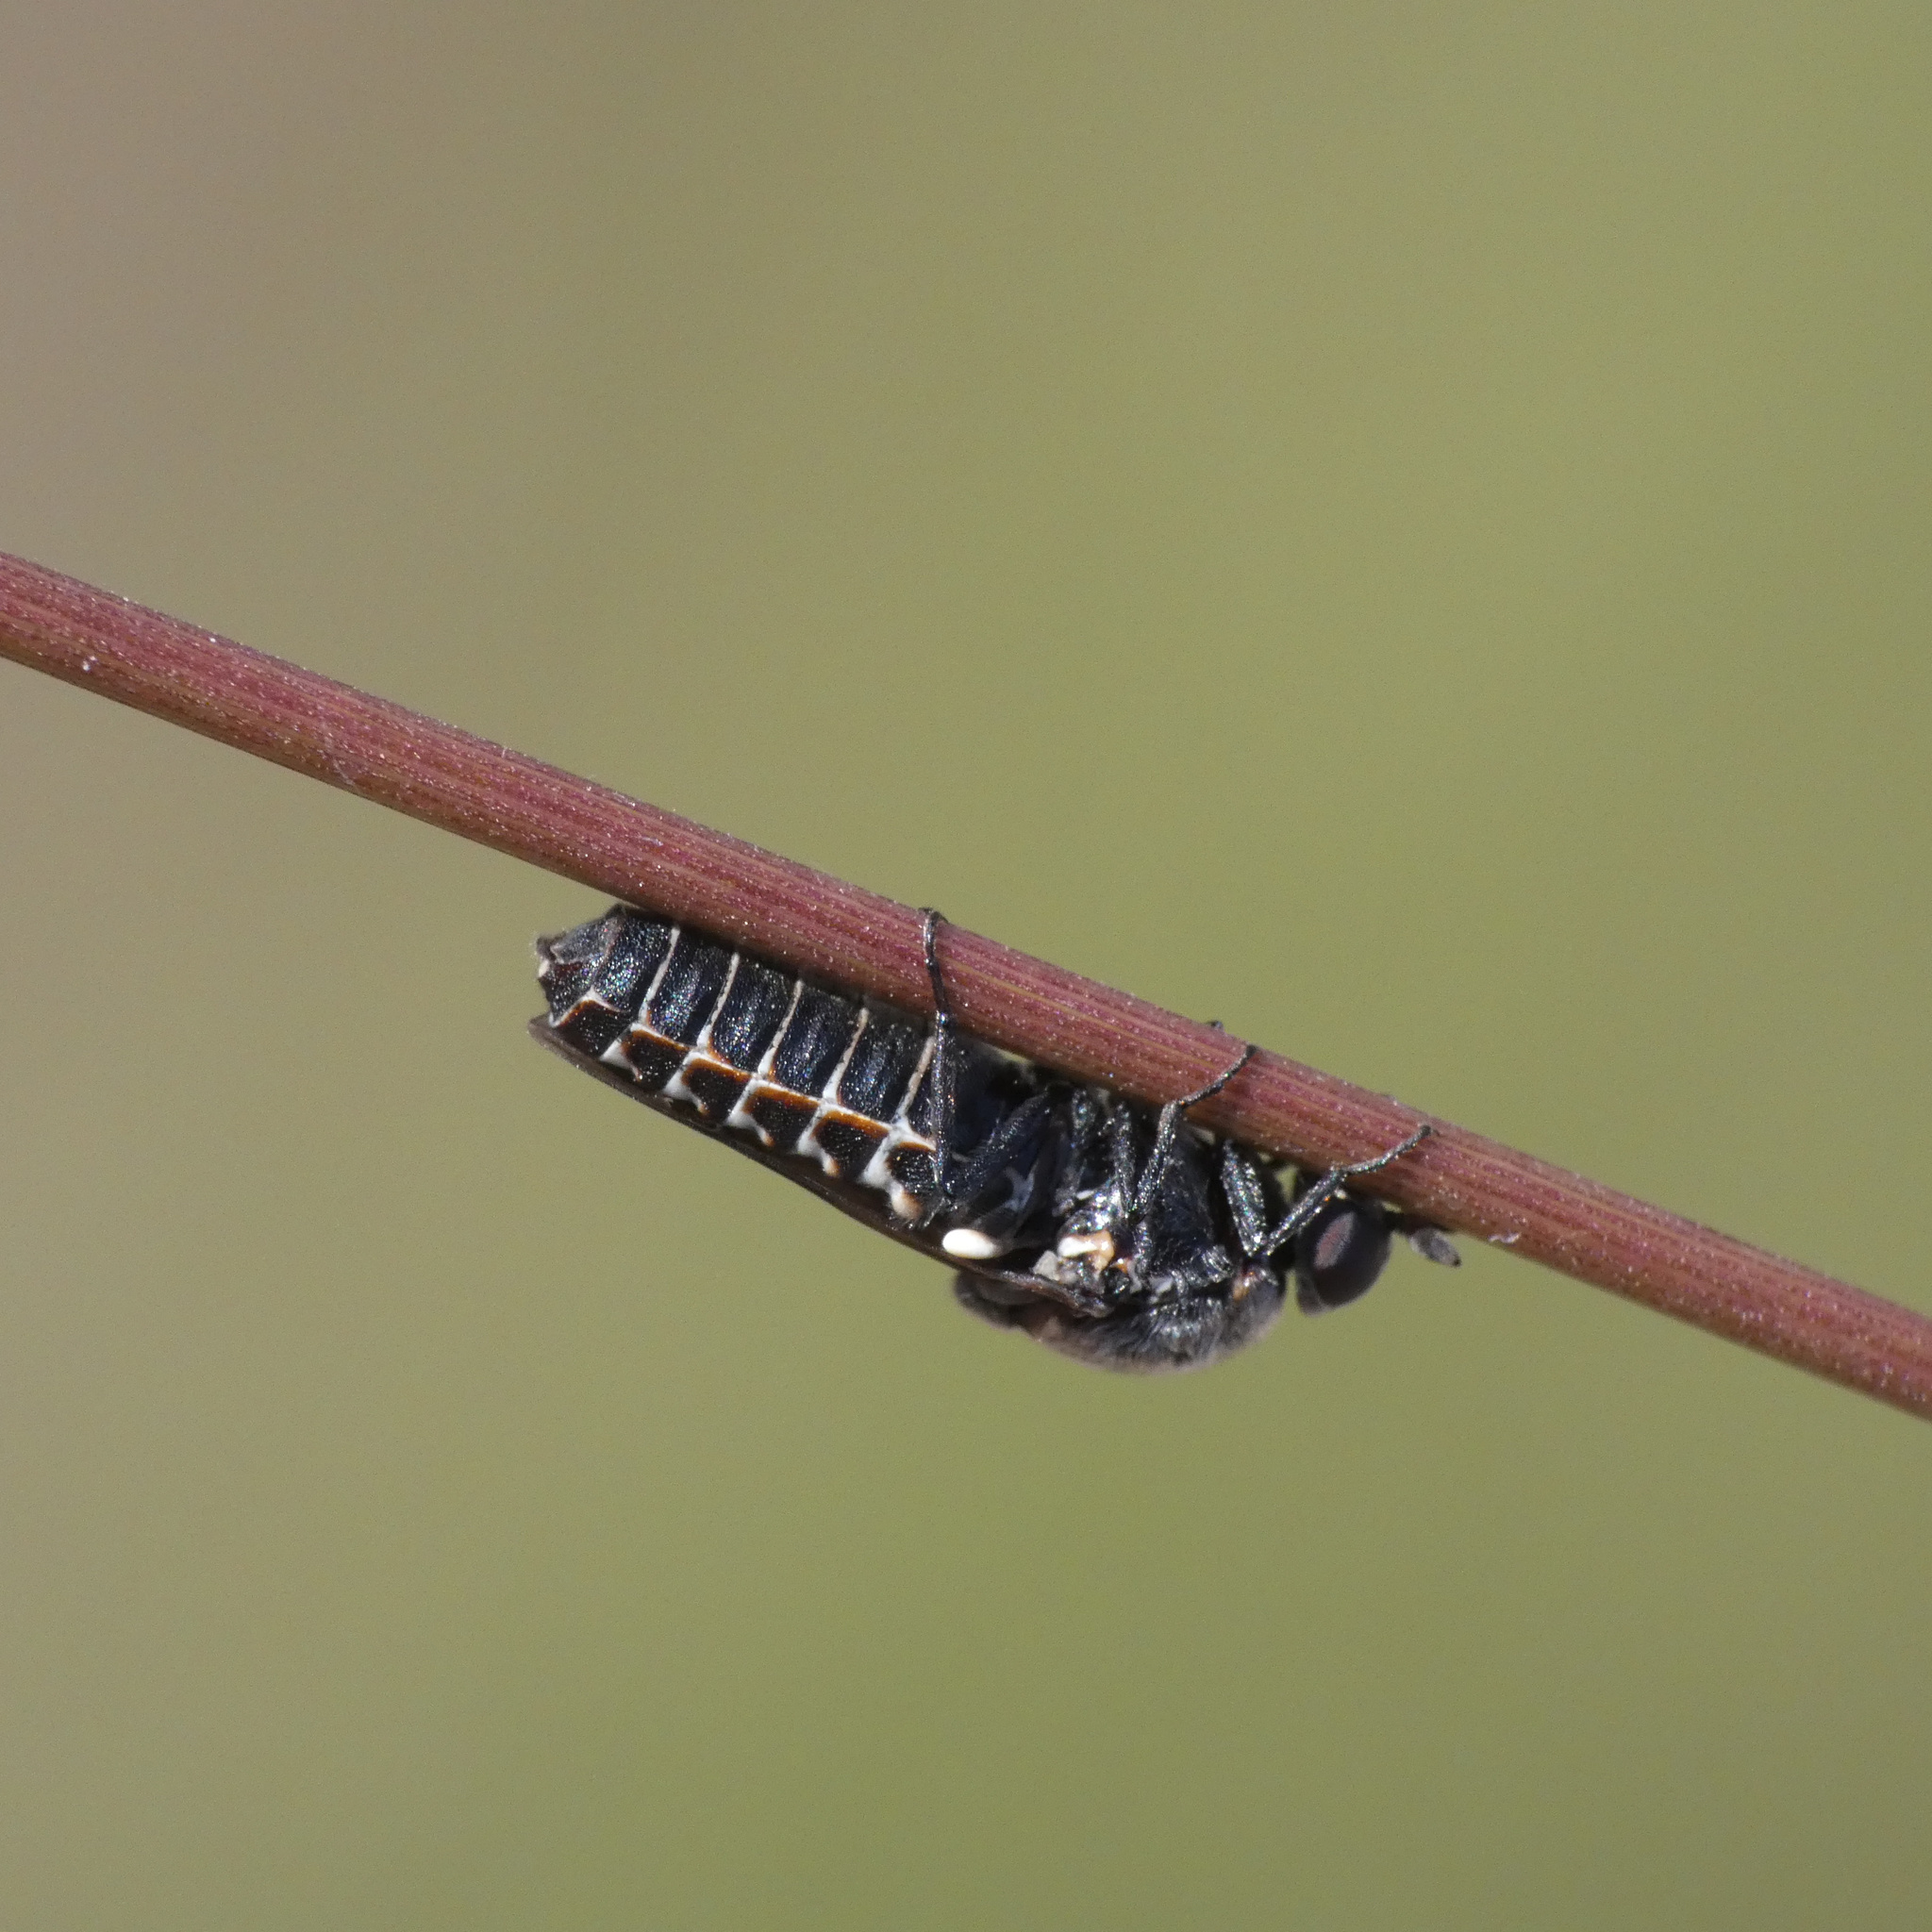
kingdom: Animalia
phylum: Arthropoda
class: Insecta
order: Diptera
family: Scenopinidae
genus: Metatrichia
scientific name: Metatrichia stevensoni
